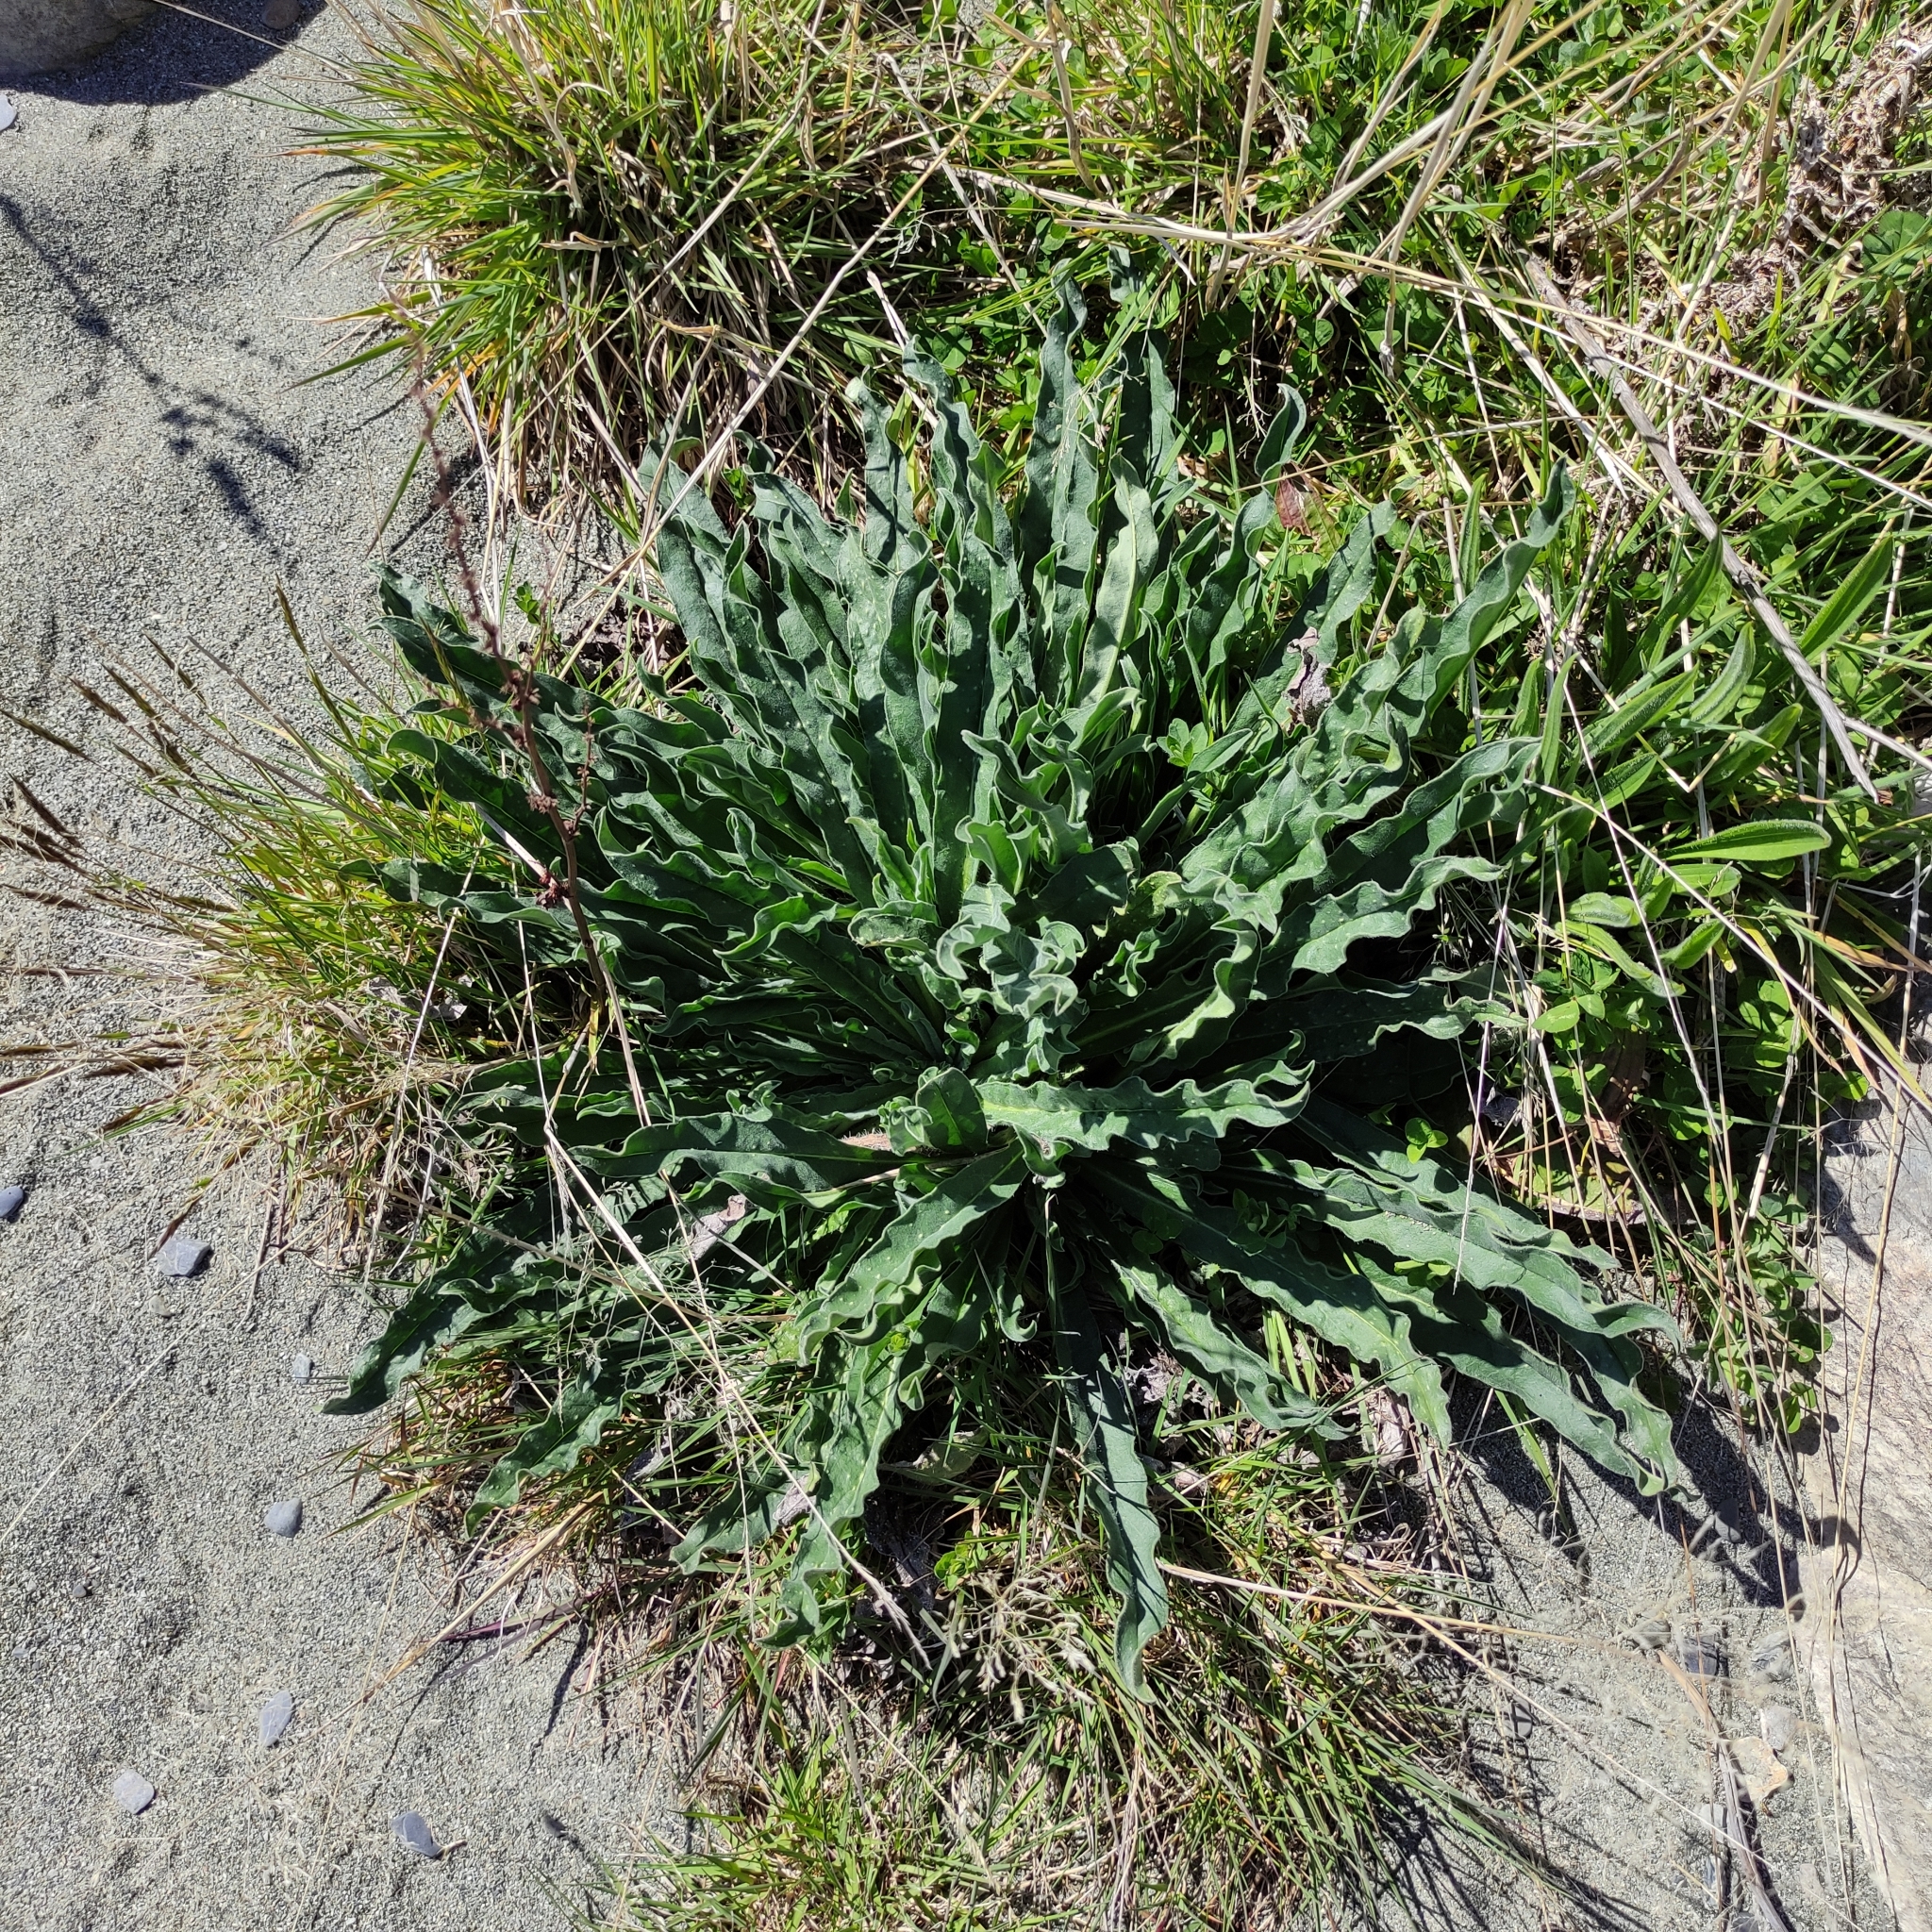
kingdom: Plantae
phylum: Tracheophyta
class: Magnoliopsida
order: Boraginales
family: Boraginaceae
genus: Echium
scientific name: Echium vulgare
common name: Common viper's bugloss
